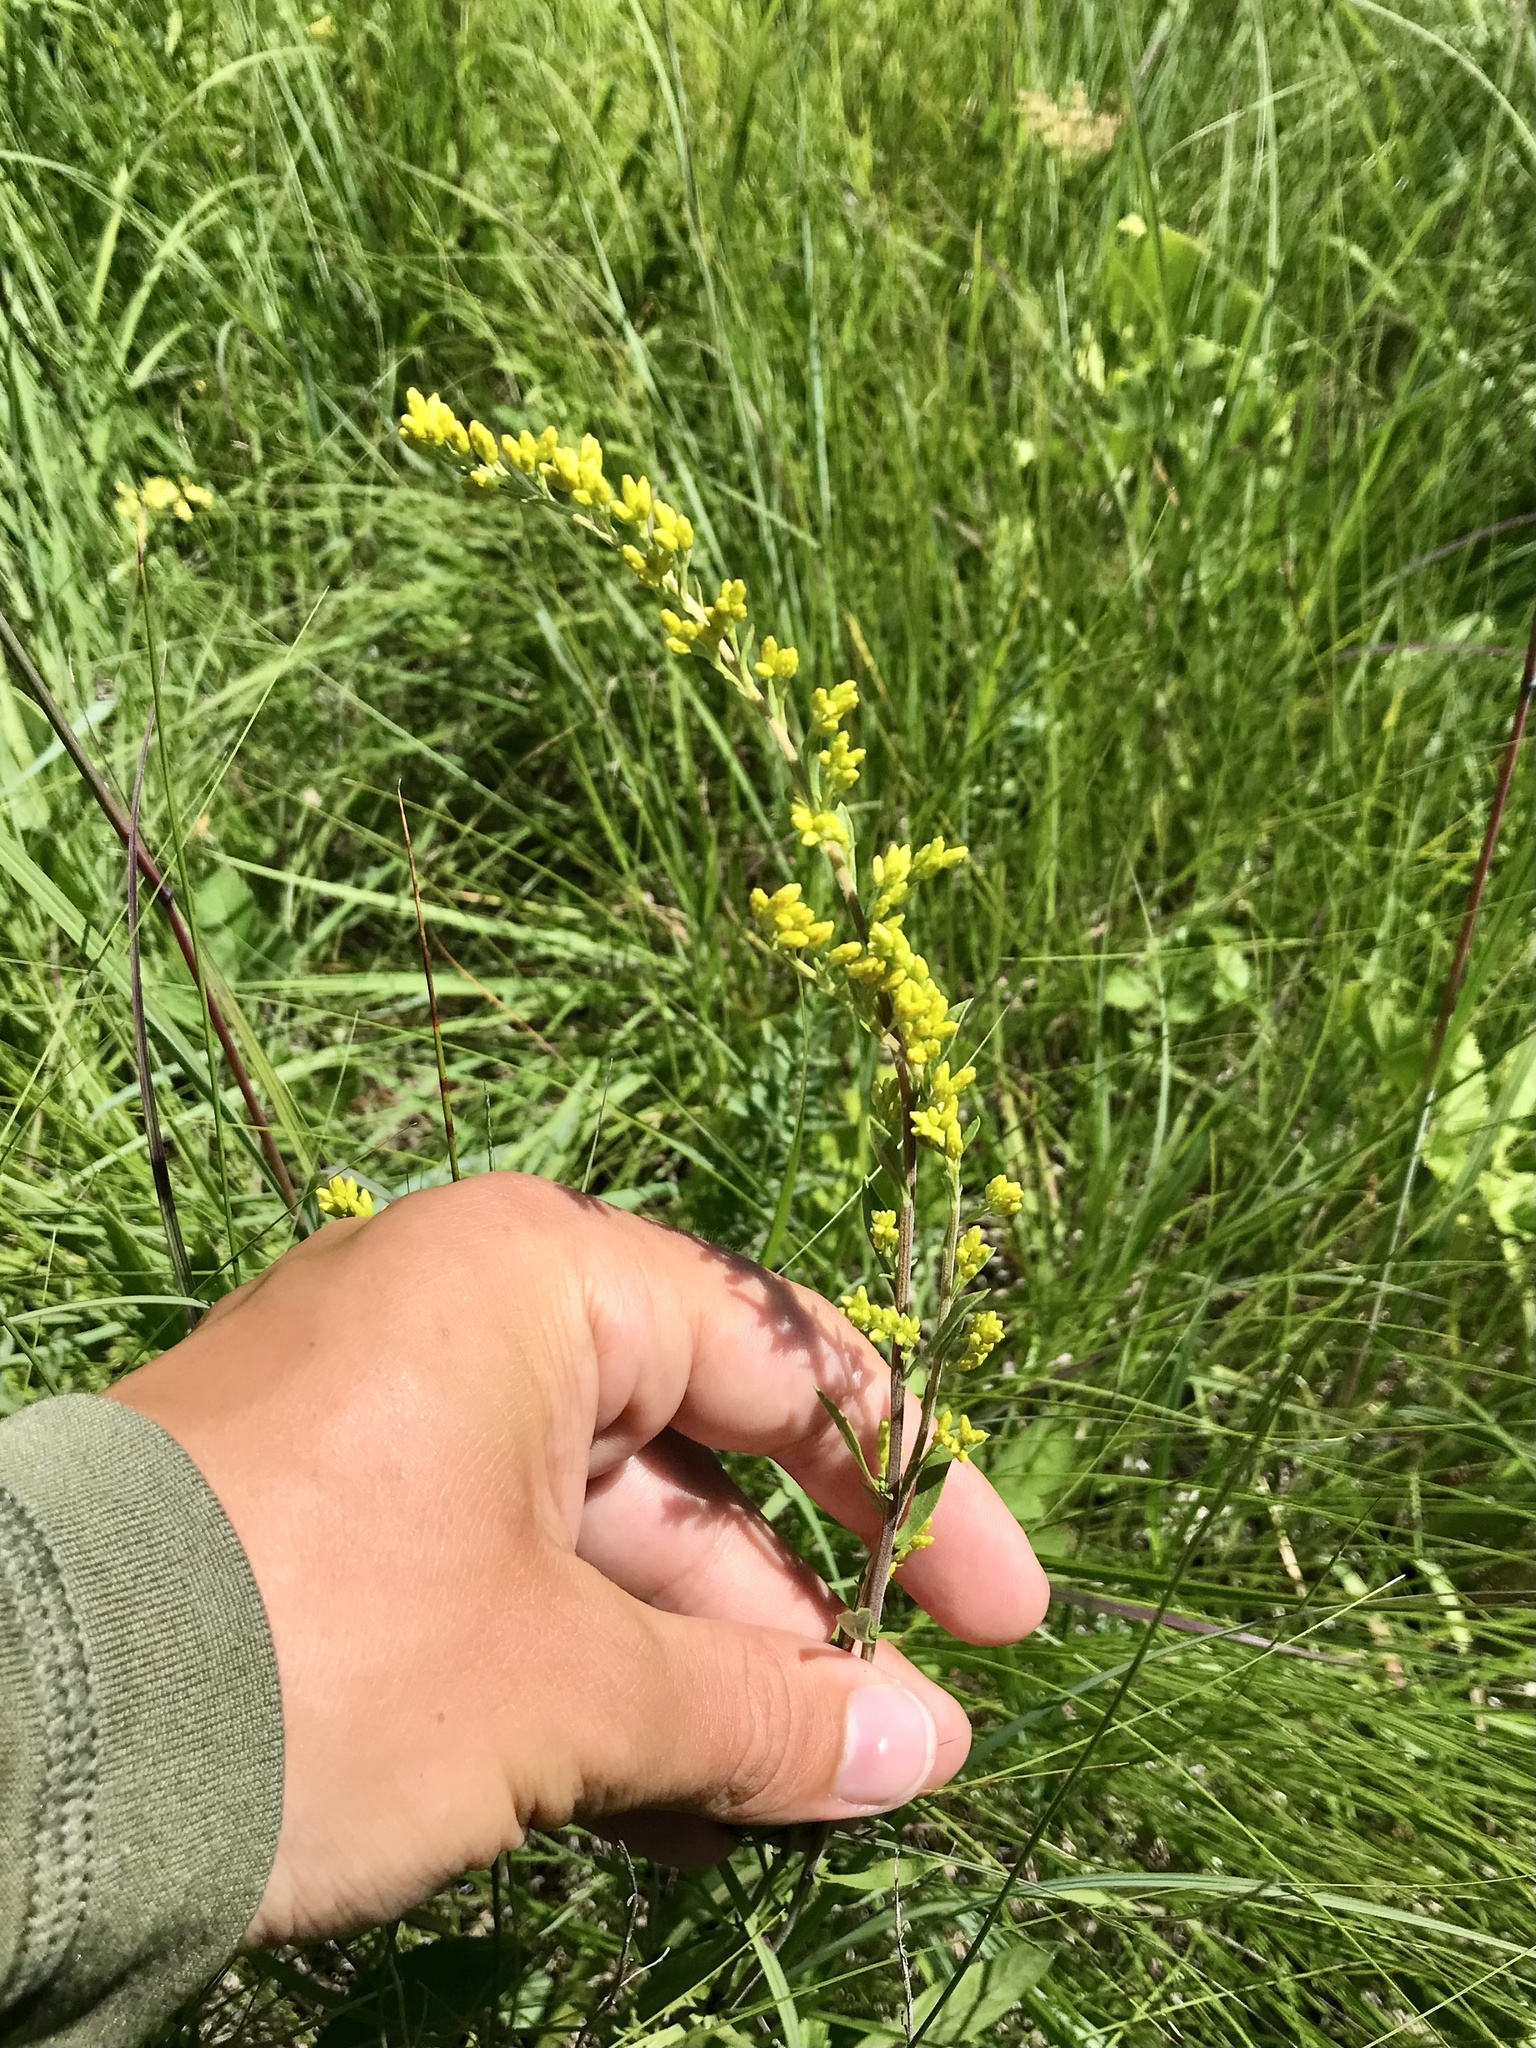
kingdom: Plantae
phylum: Tracheophyta
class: Magnoliopsida
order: Asterales
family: Asteraceae
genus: Solidago
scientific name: Solidago nemoralis
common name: Grey goldenrod
